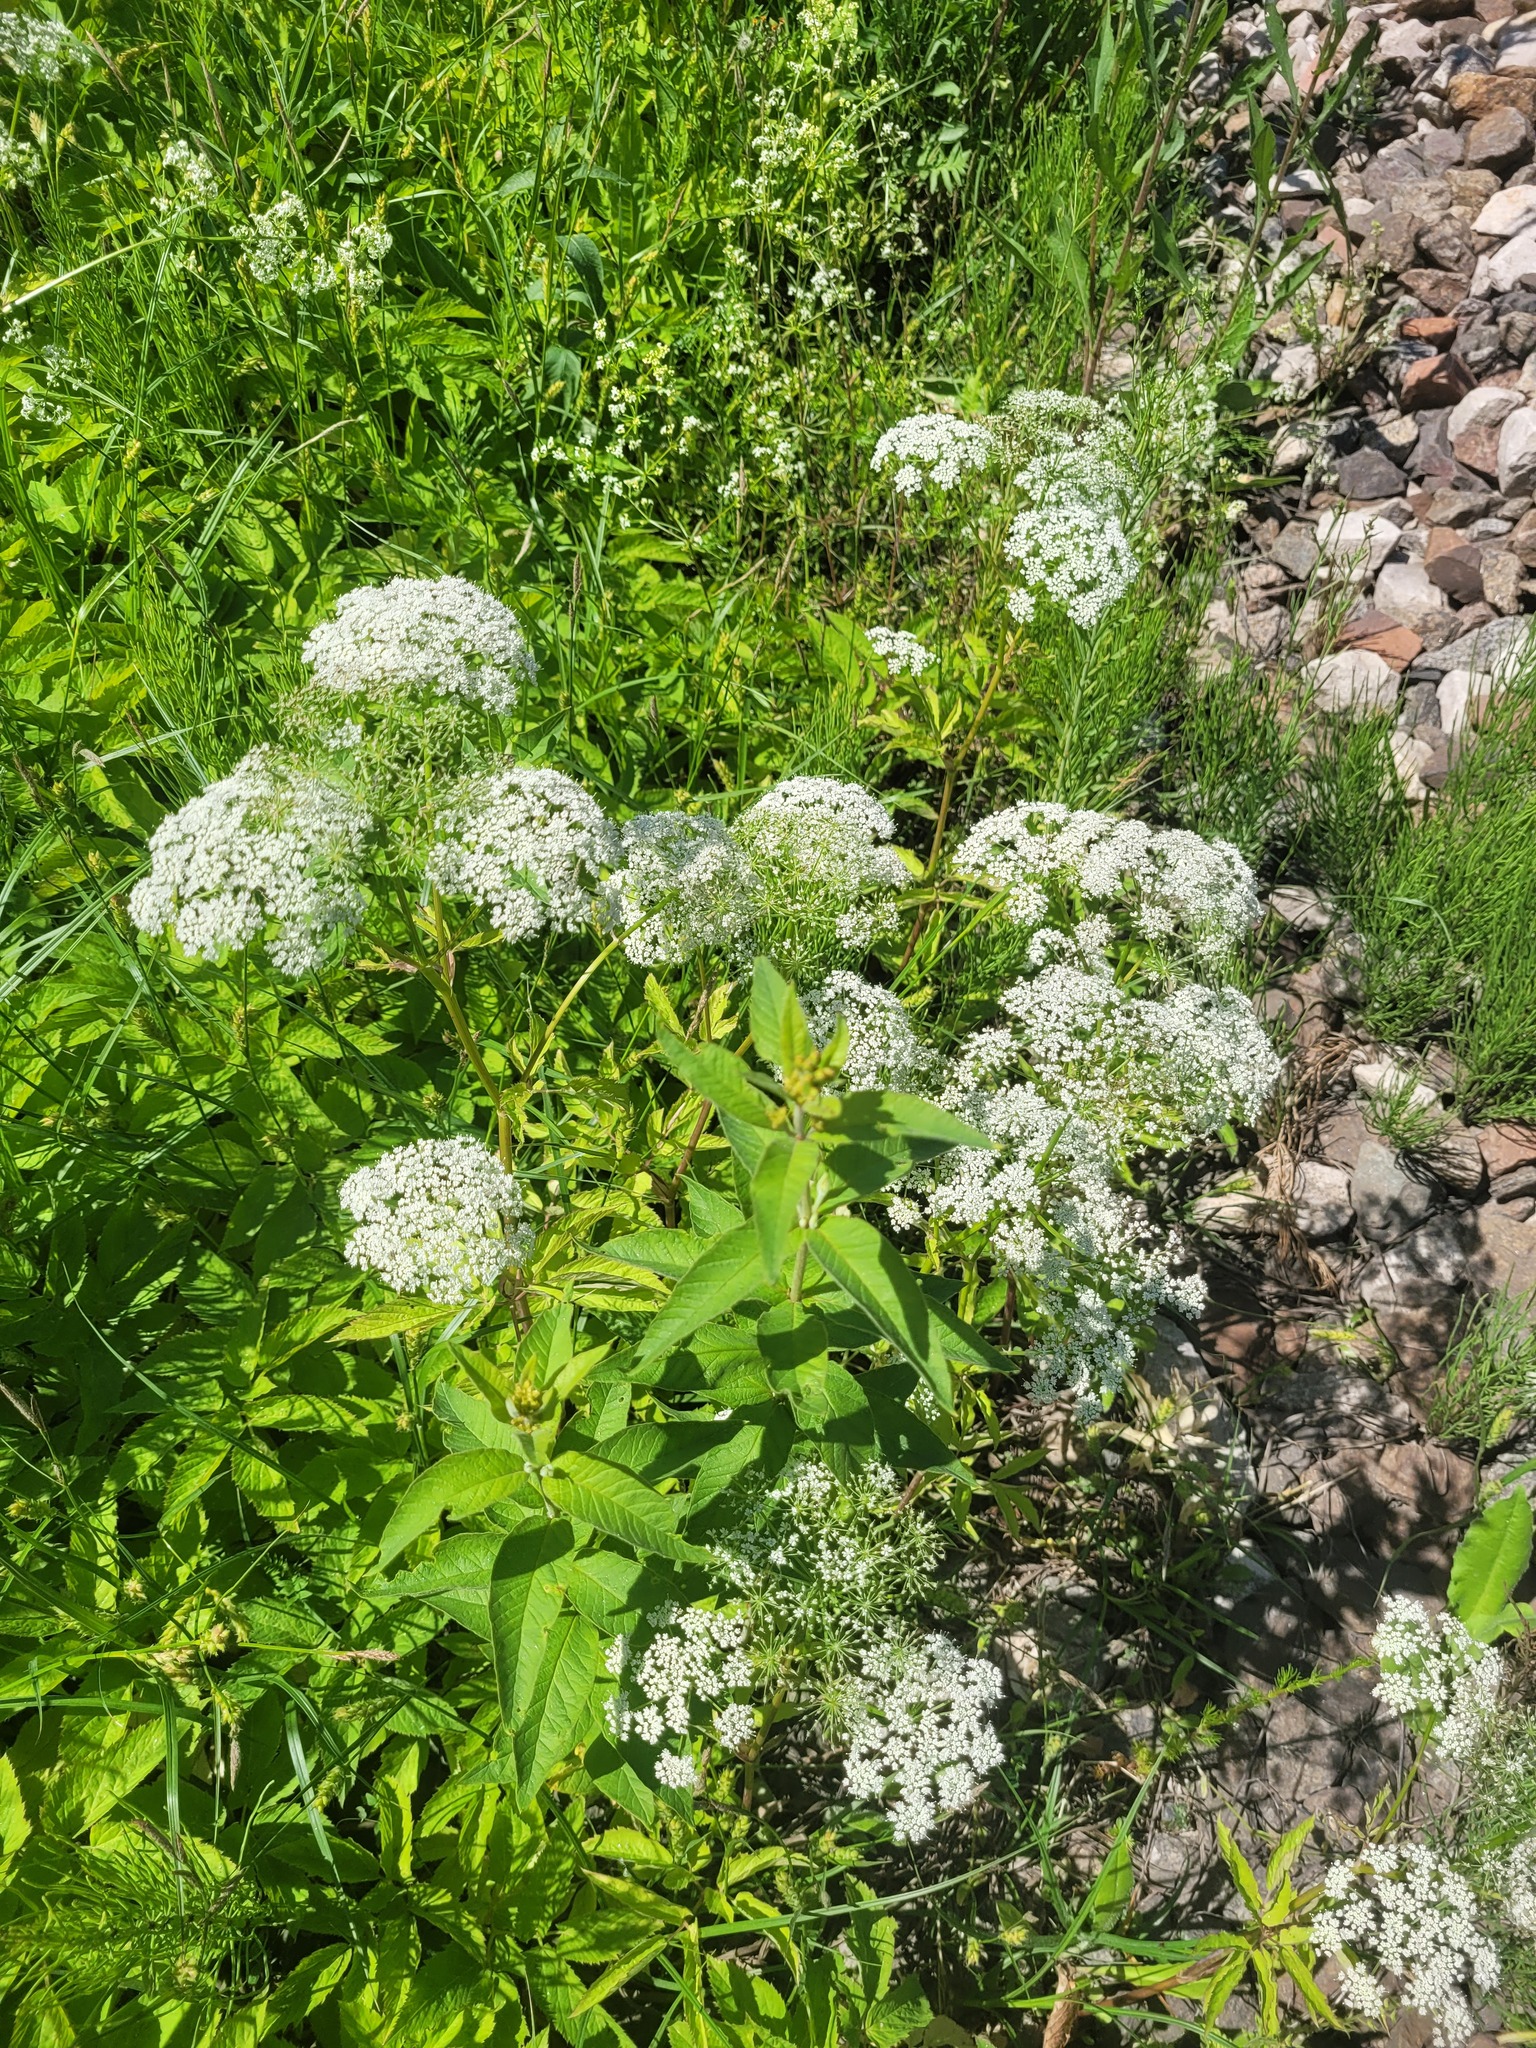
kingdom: Plantae
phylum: Tracheophyta
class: Magnoliopsida
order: Ericales
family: Primulaceae
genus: Lysimachia
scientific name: Lysimachia vulgaris
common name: Yellow loosestrife
